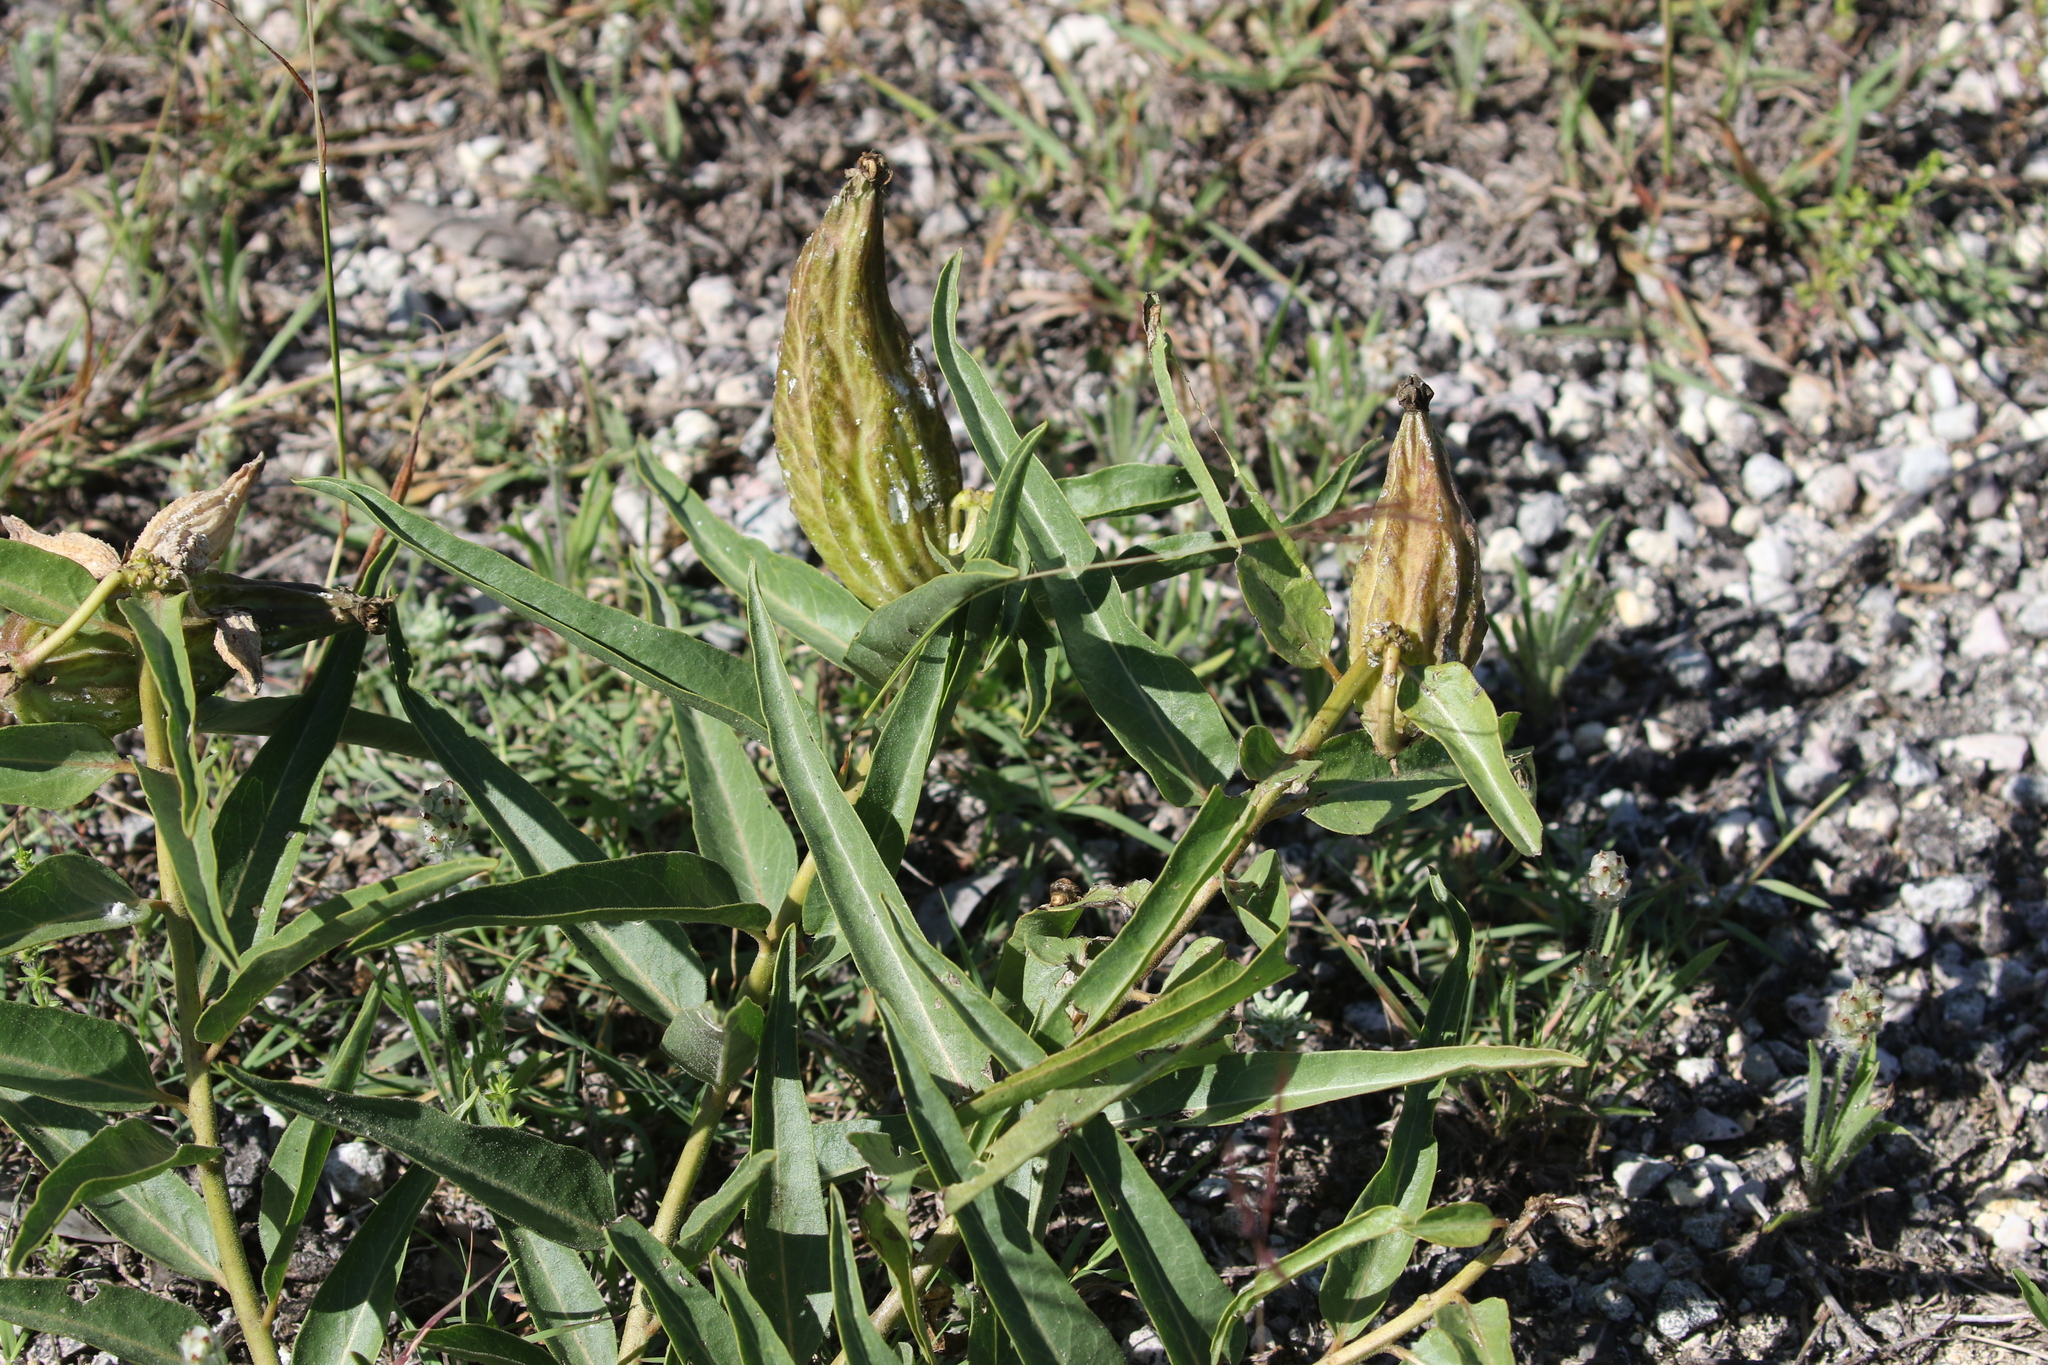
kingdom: Plantae
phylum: Tracheophyta
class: Magnoliopsida
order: Gentianales
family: Apocynaceae
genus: Asclepias
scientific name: Asclepias asperula
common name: Antelope horns
